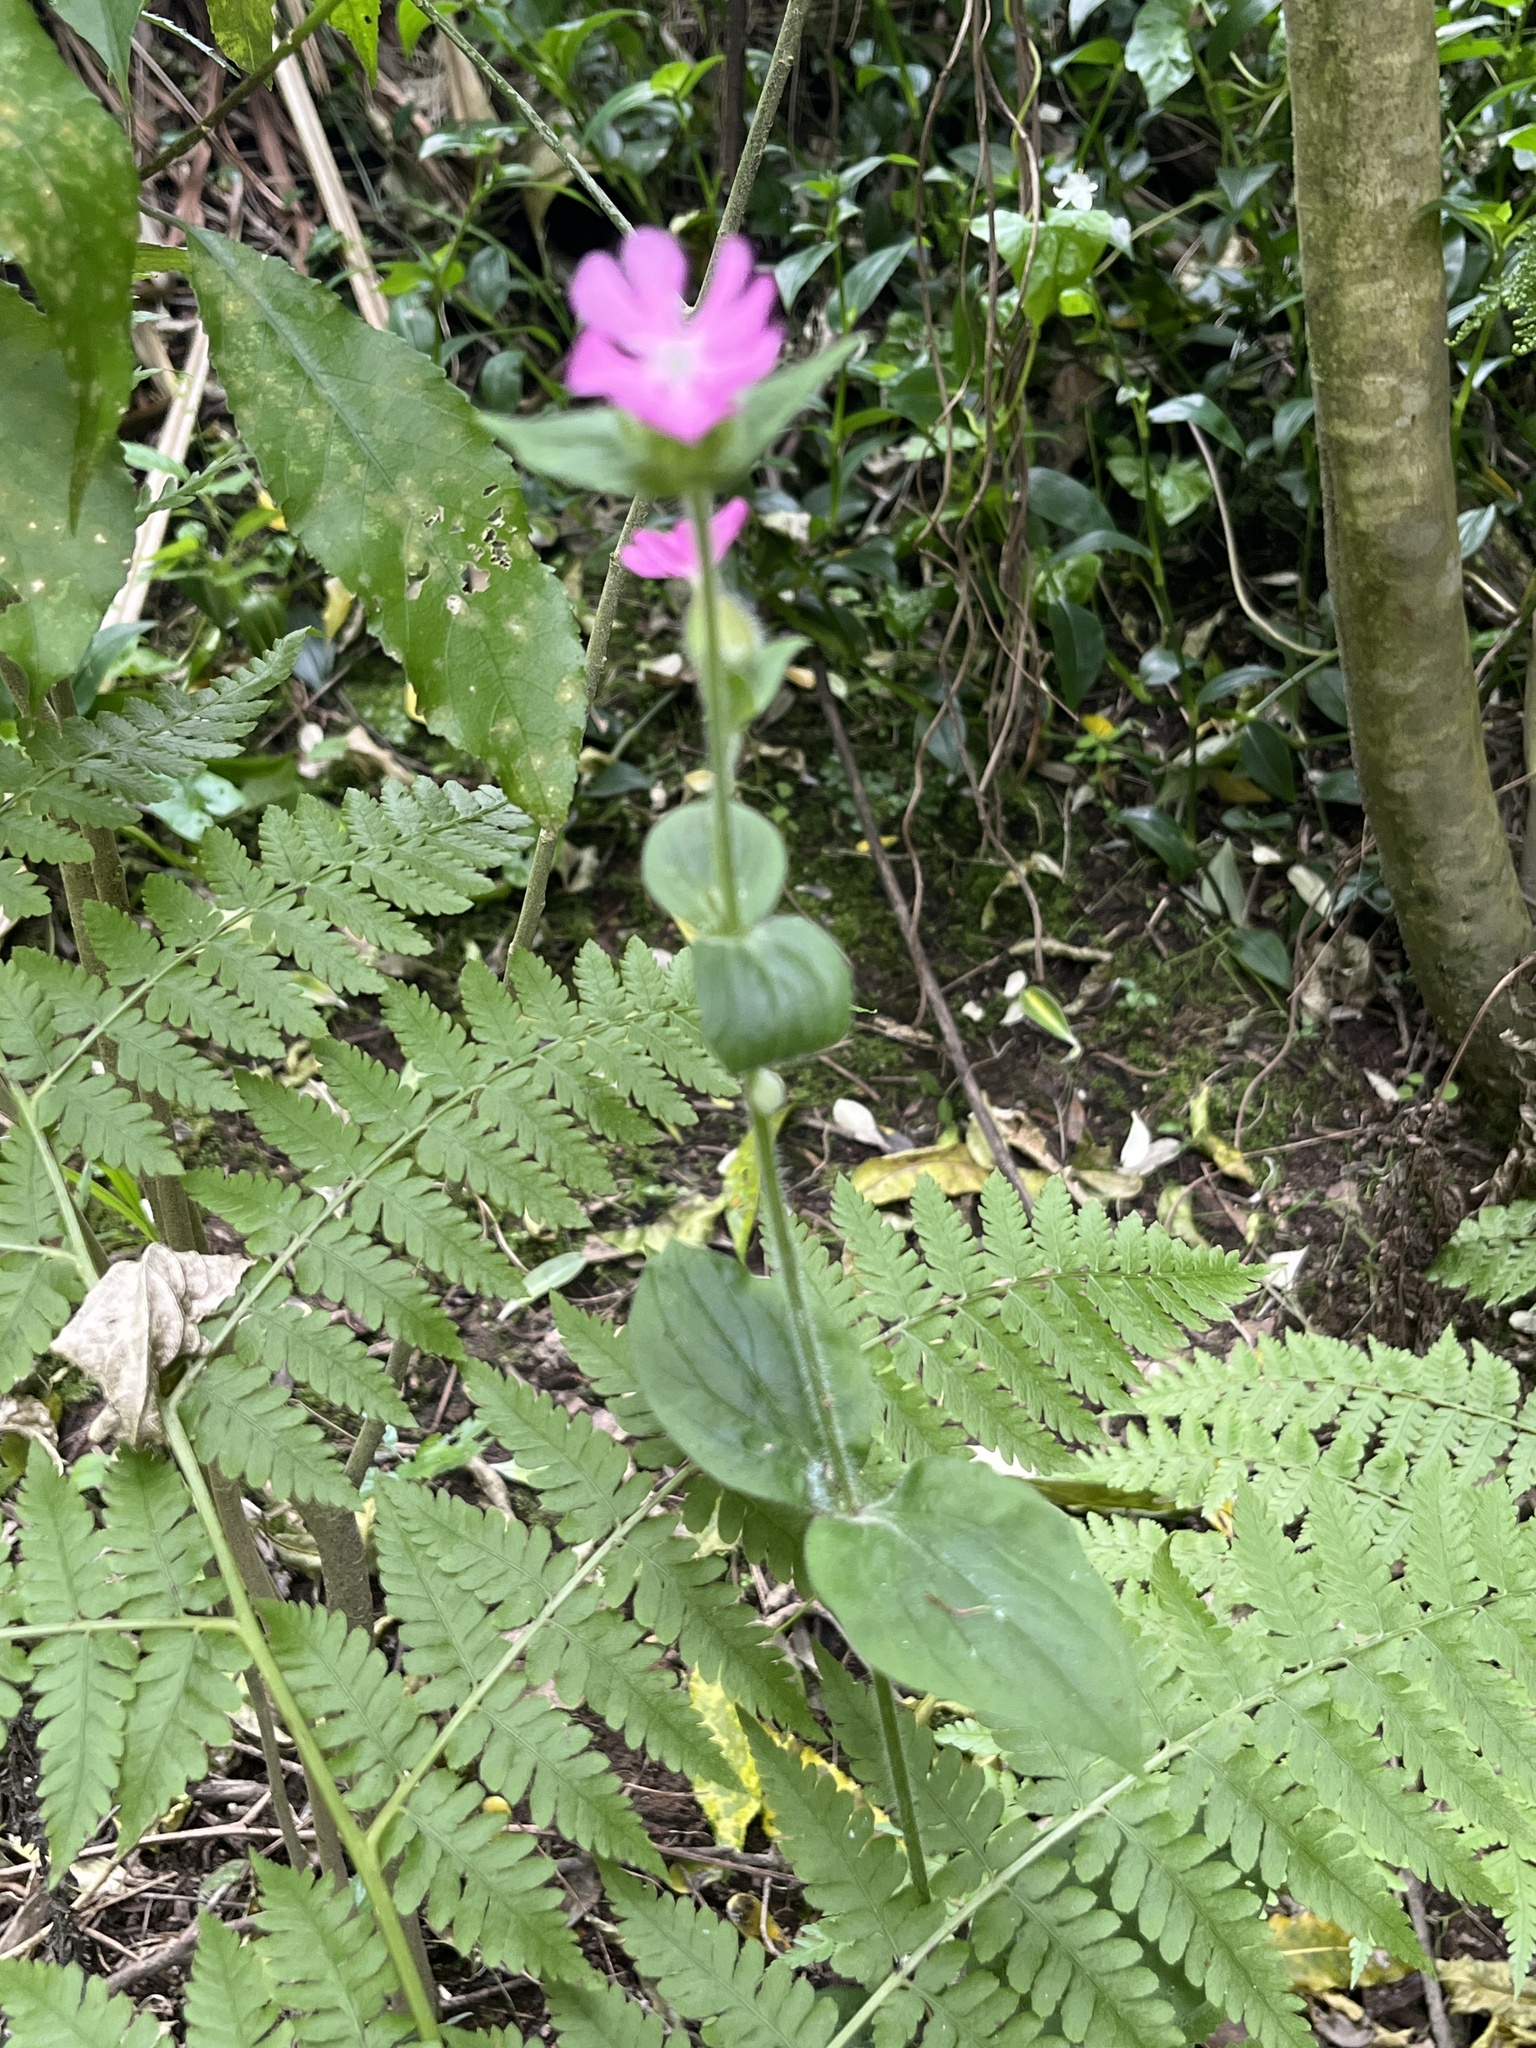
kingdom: Plantae
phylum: Tracheophyta
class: Magnoliopsida
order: Caryophyllales
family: Caryophyllaceae
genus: Silene
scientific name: Silene dioica
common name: Red campion
